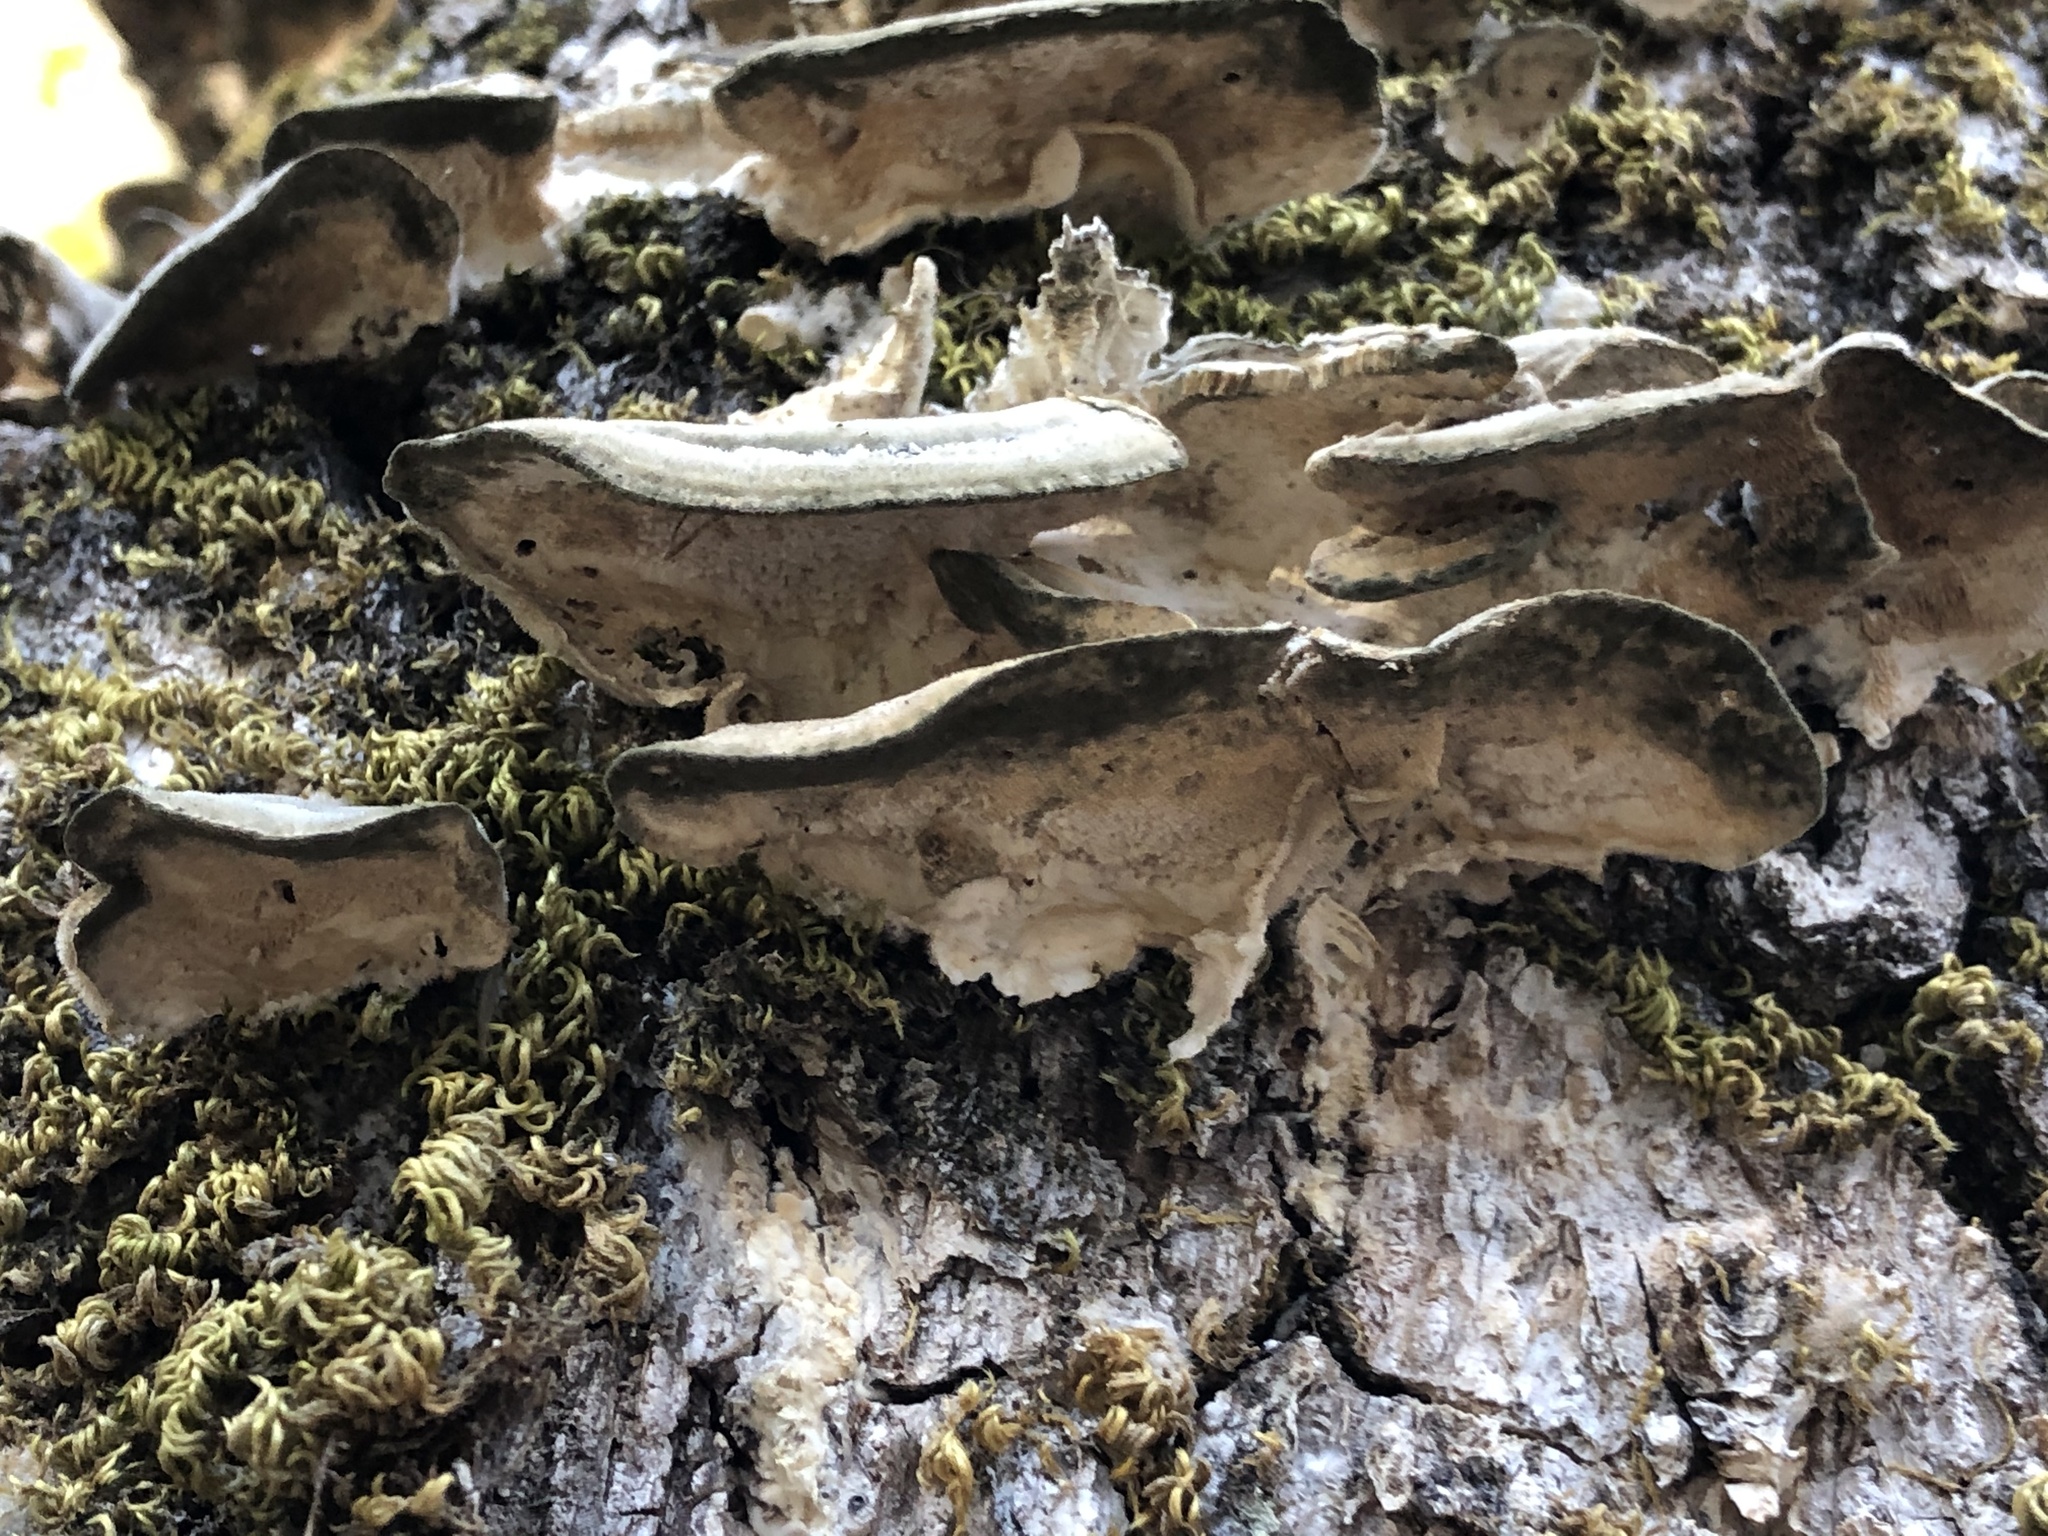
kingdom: Fungi
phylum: Basidiomycota
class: Agaricomycetes
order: Russulales
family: Stereaceae
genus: Stereum
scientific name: Stereum hirsutum
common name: Hairy curtain crust
